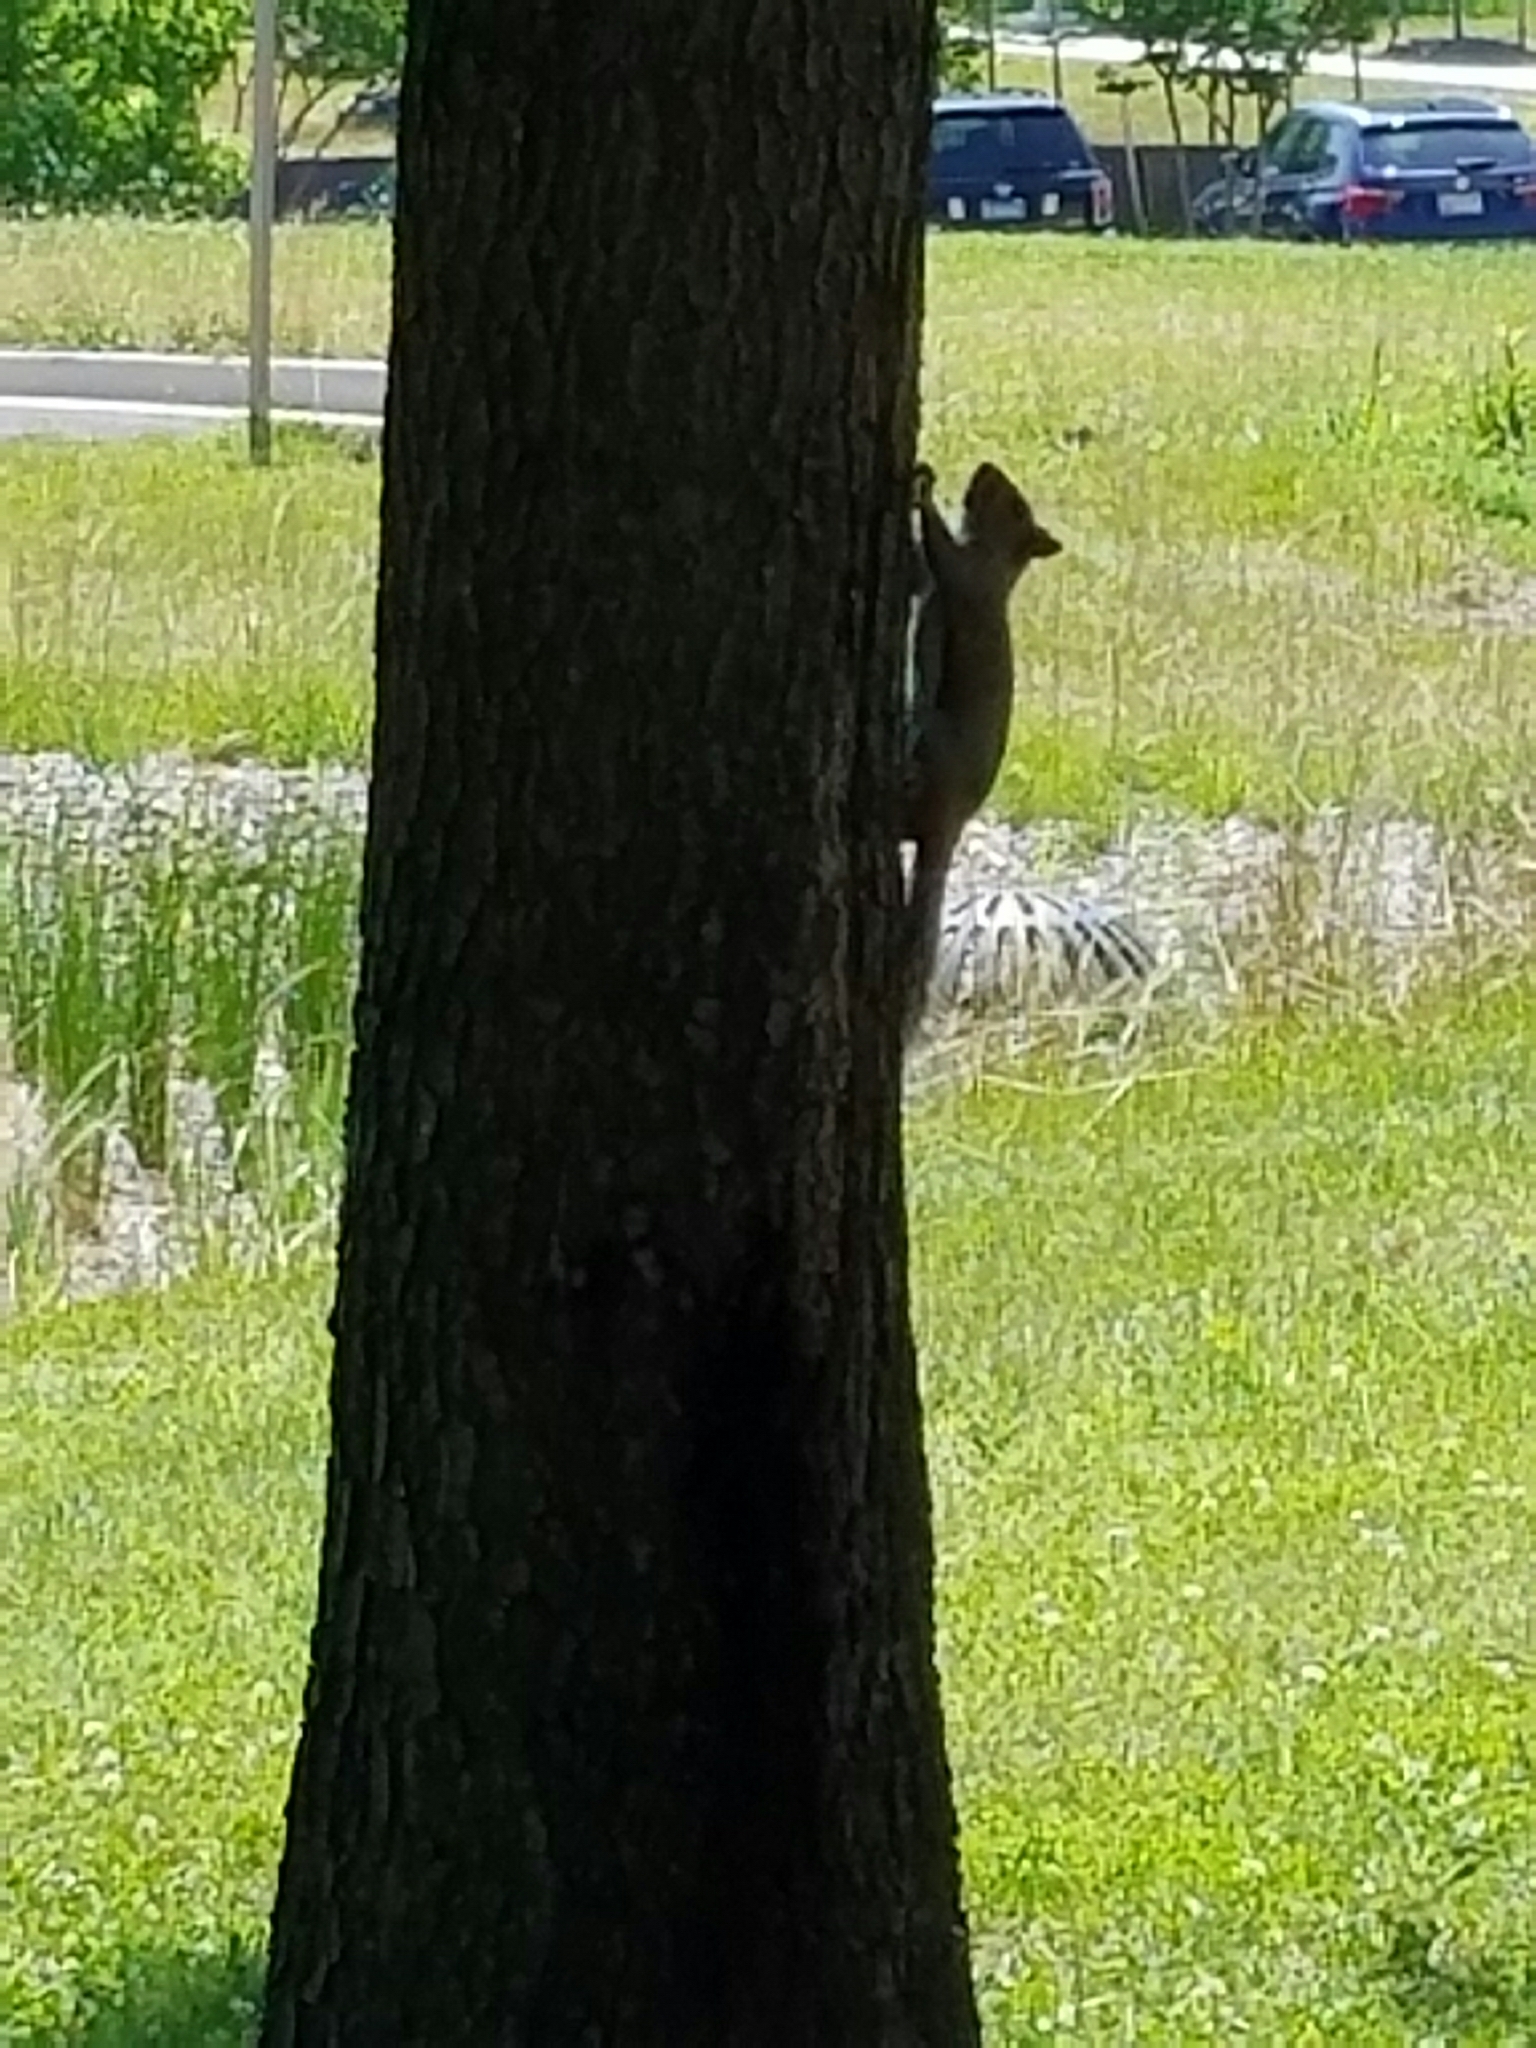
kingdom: Animalia
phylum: Chordata
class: Mammalia
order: Rodentia
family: Sciuridae
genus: Sciurus
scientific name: Sciurus carolinensis
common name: Eastern gray squirrel
